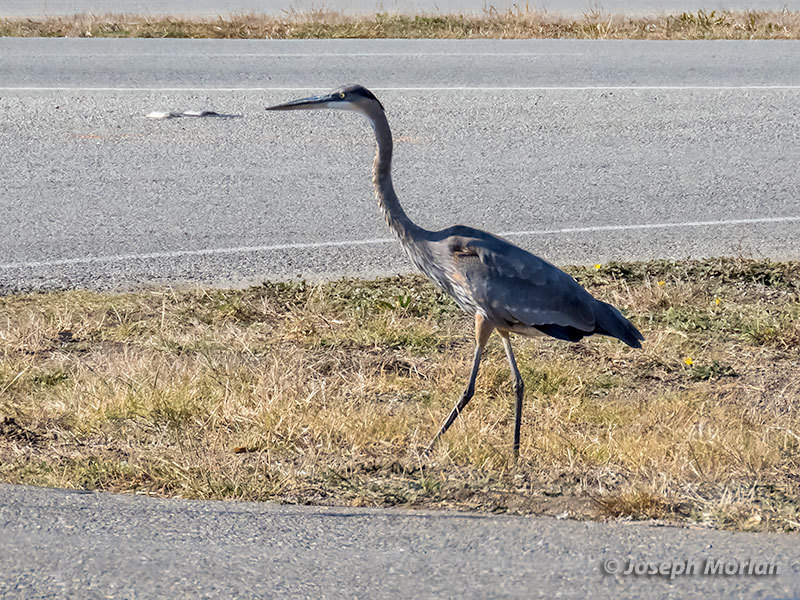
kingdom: Animalia
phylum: Chordata
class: Aves
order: Pelecaniformes
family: Ardeidae
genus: Ardea
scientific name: Ardea herodias
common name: Great blue heron
